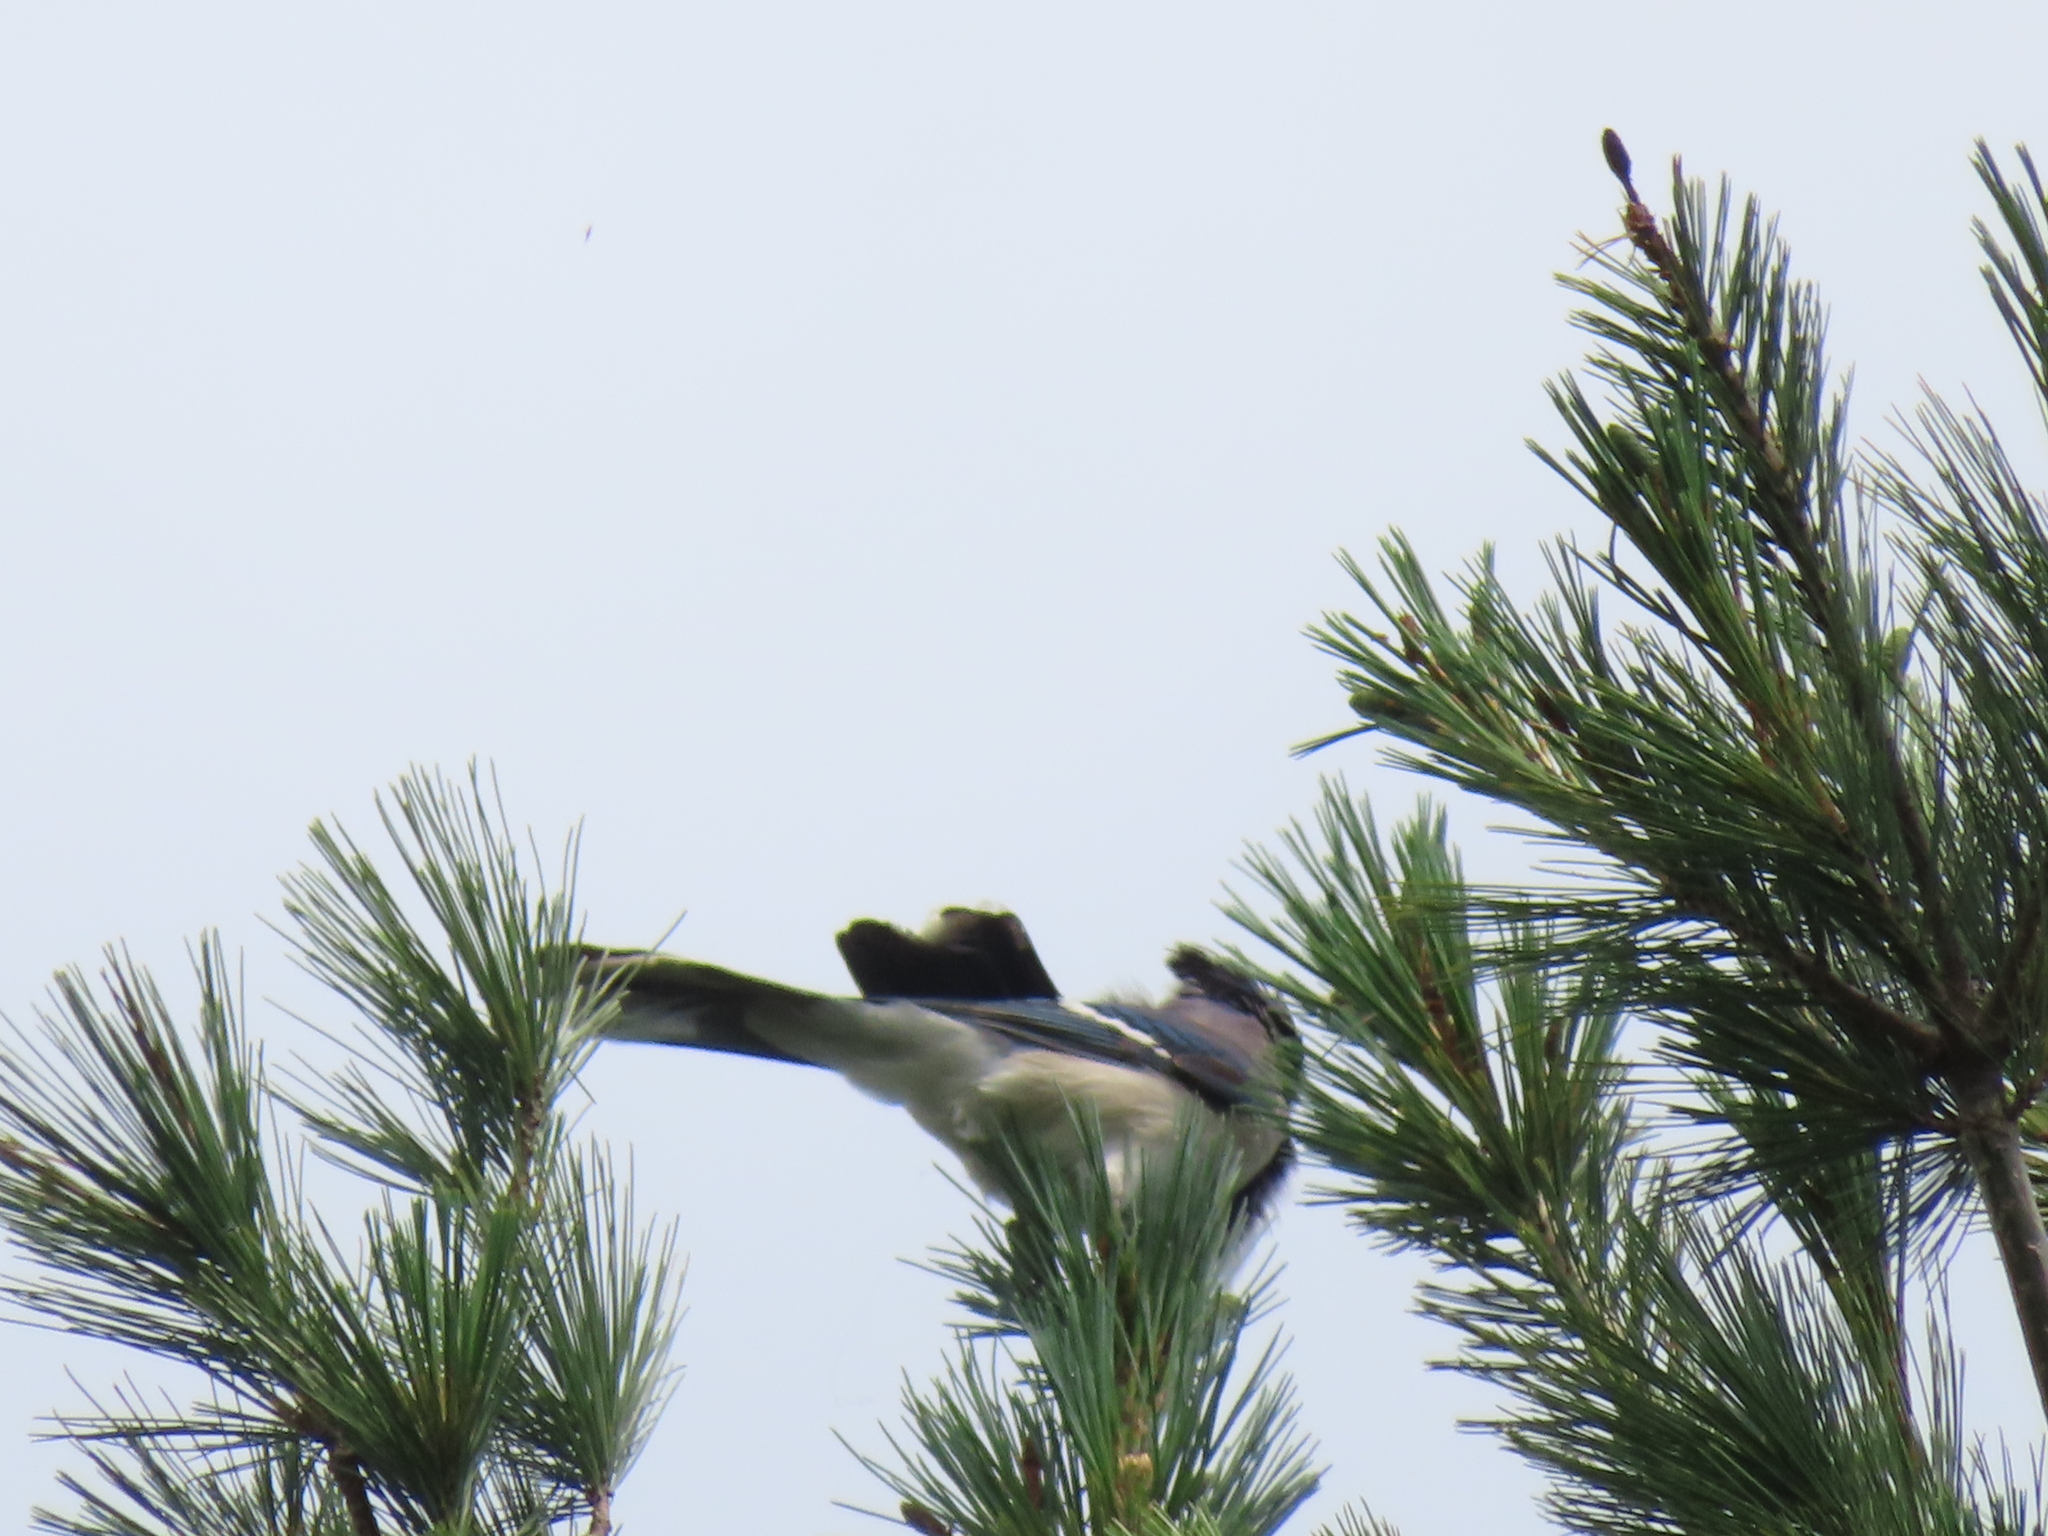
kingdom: Animalia
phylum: Chordata
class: Aves
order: Passeriformes
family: Corvidae
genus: Cyanocitta
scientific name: Cyanocitta cristata
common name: Blue jay
